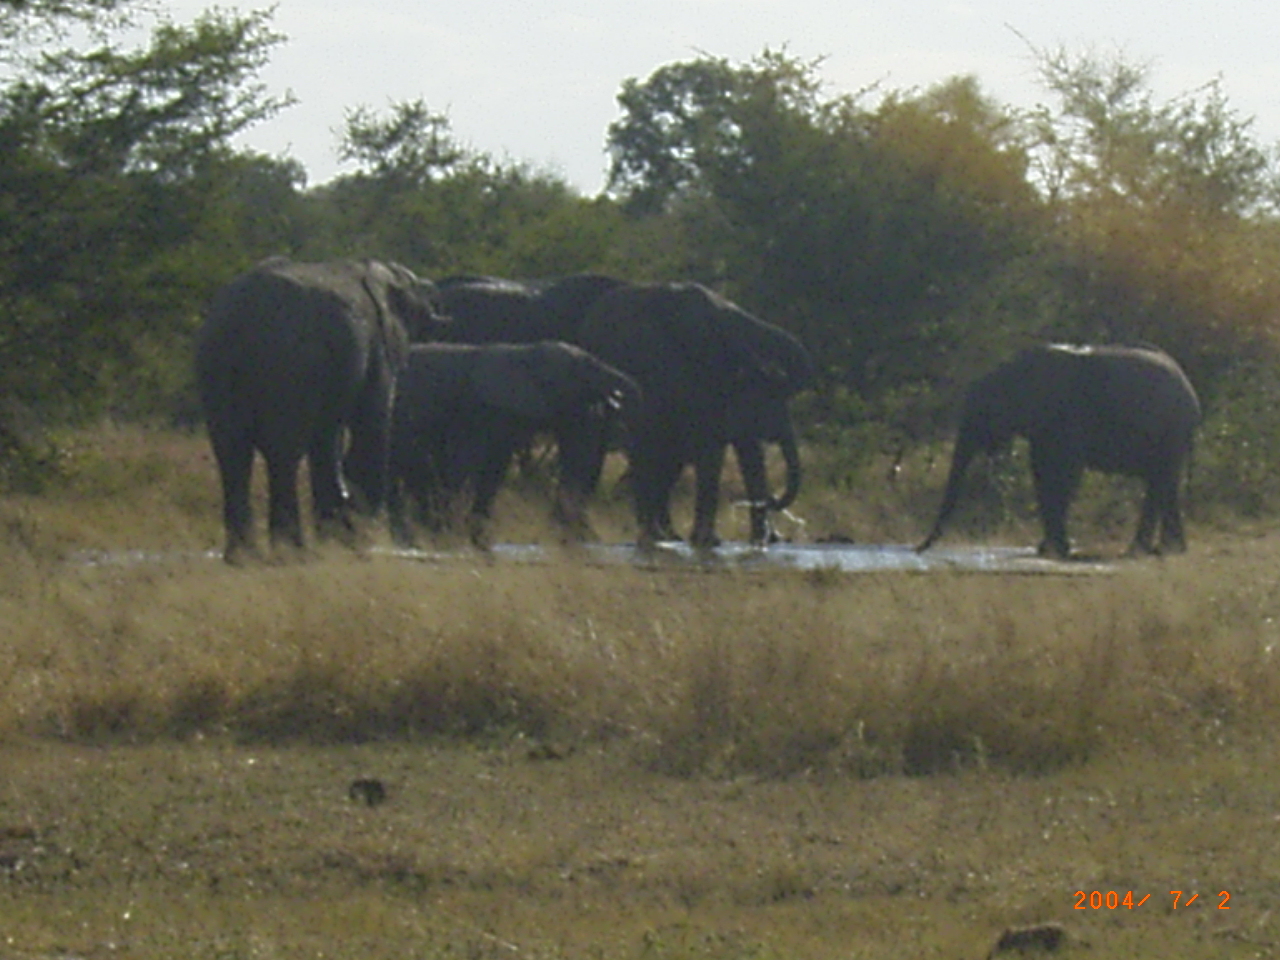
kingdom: Animalia
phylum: Chordata
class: Mammalia
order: Proboscidea
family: Elephantidae
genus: Loxodonta
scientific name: Loxodonta africana
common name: African elephant
